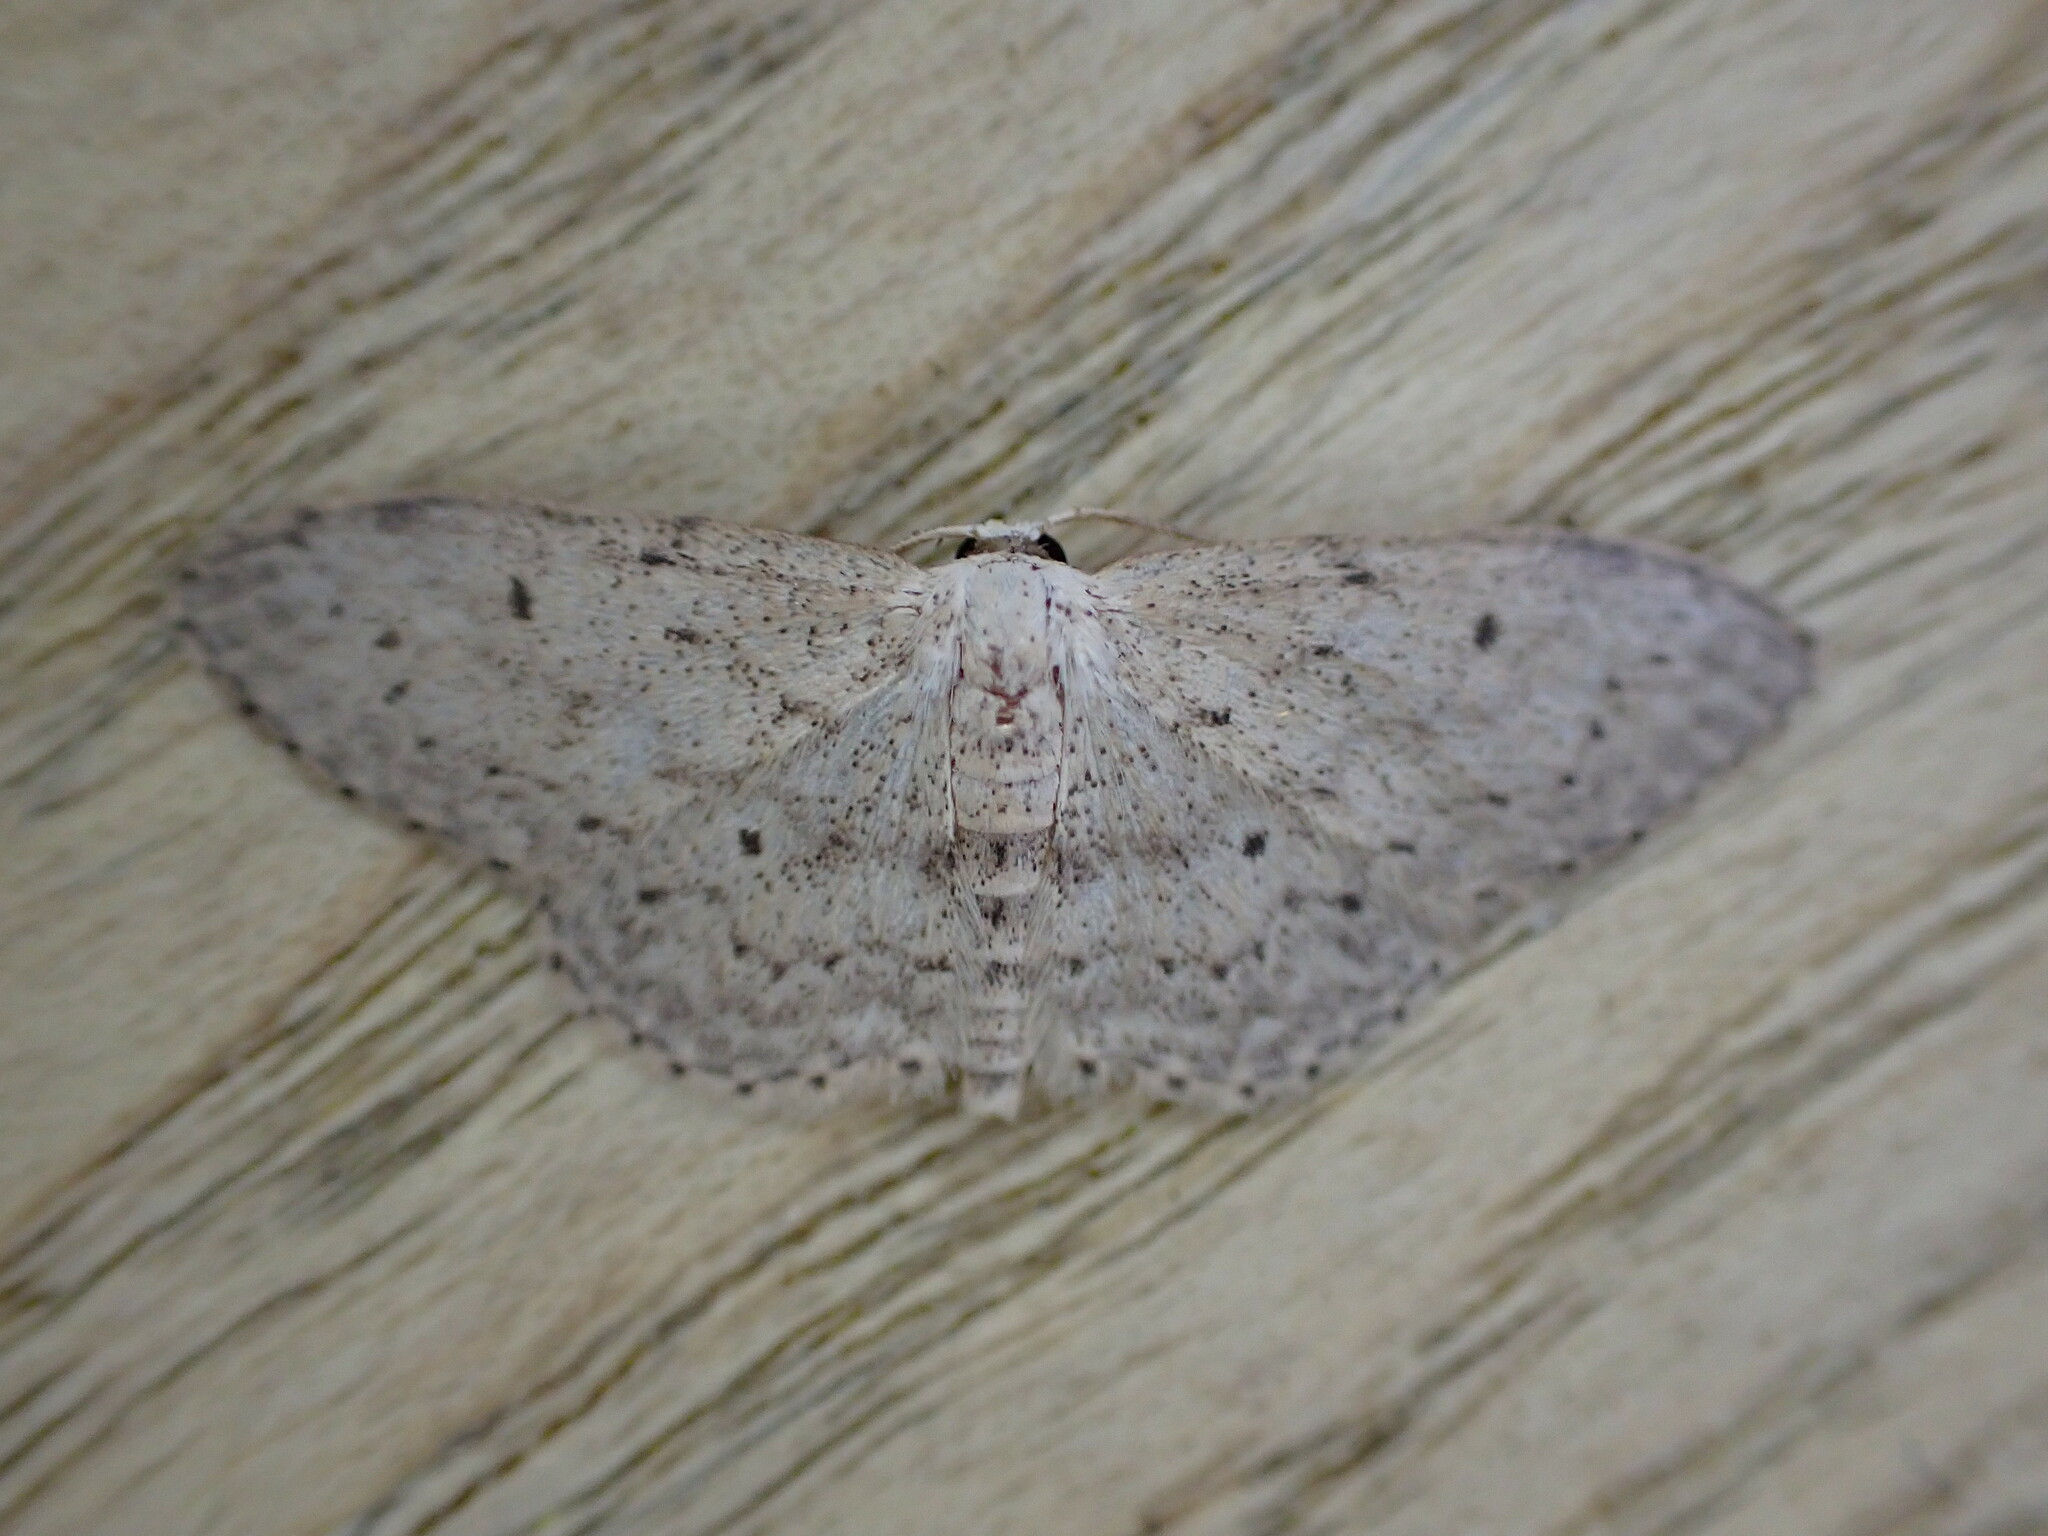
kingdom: Animalia
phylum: Arthropoda
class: Insecta
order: Lepidoptera
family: Geometridae
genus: Idaea
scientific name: Idaea seriata
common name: Small dusty wave
